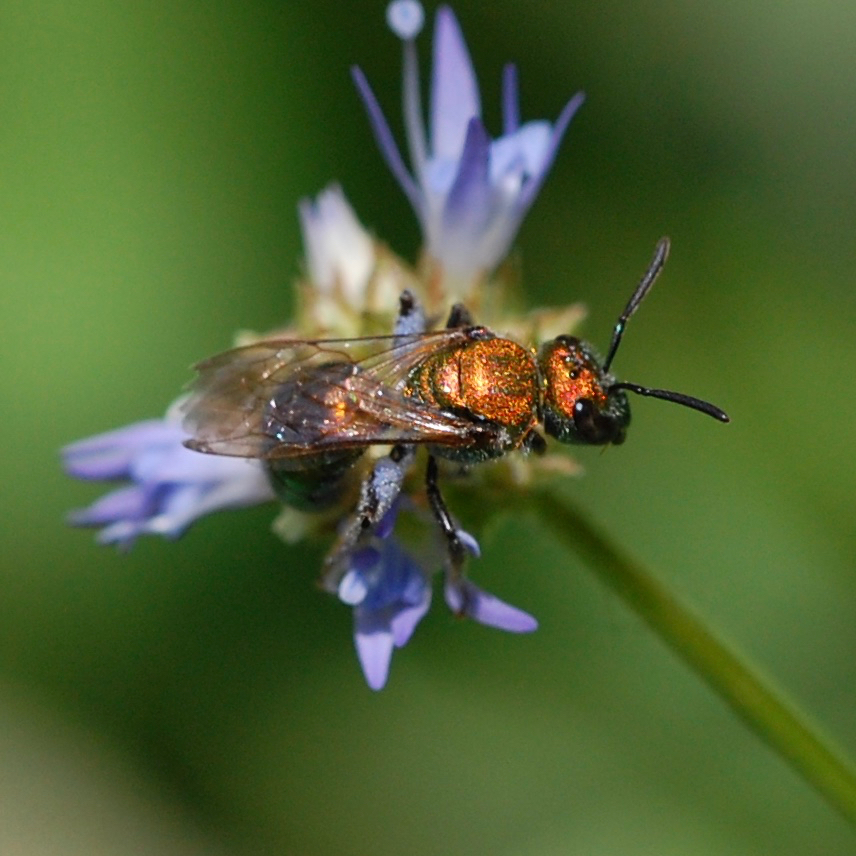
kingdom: Animalia
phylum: Arthropoda
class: Insecta
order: Hymenoptera
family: Halictidae
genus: Augochlora
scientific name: Augochlora pura
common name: Pure green sweat bee
